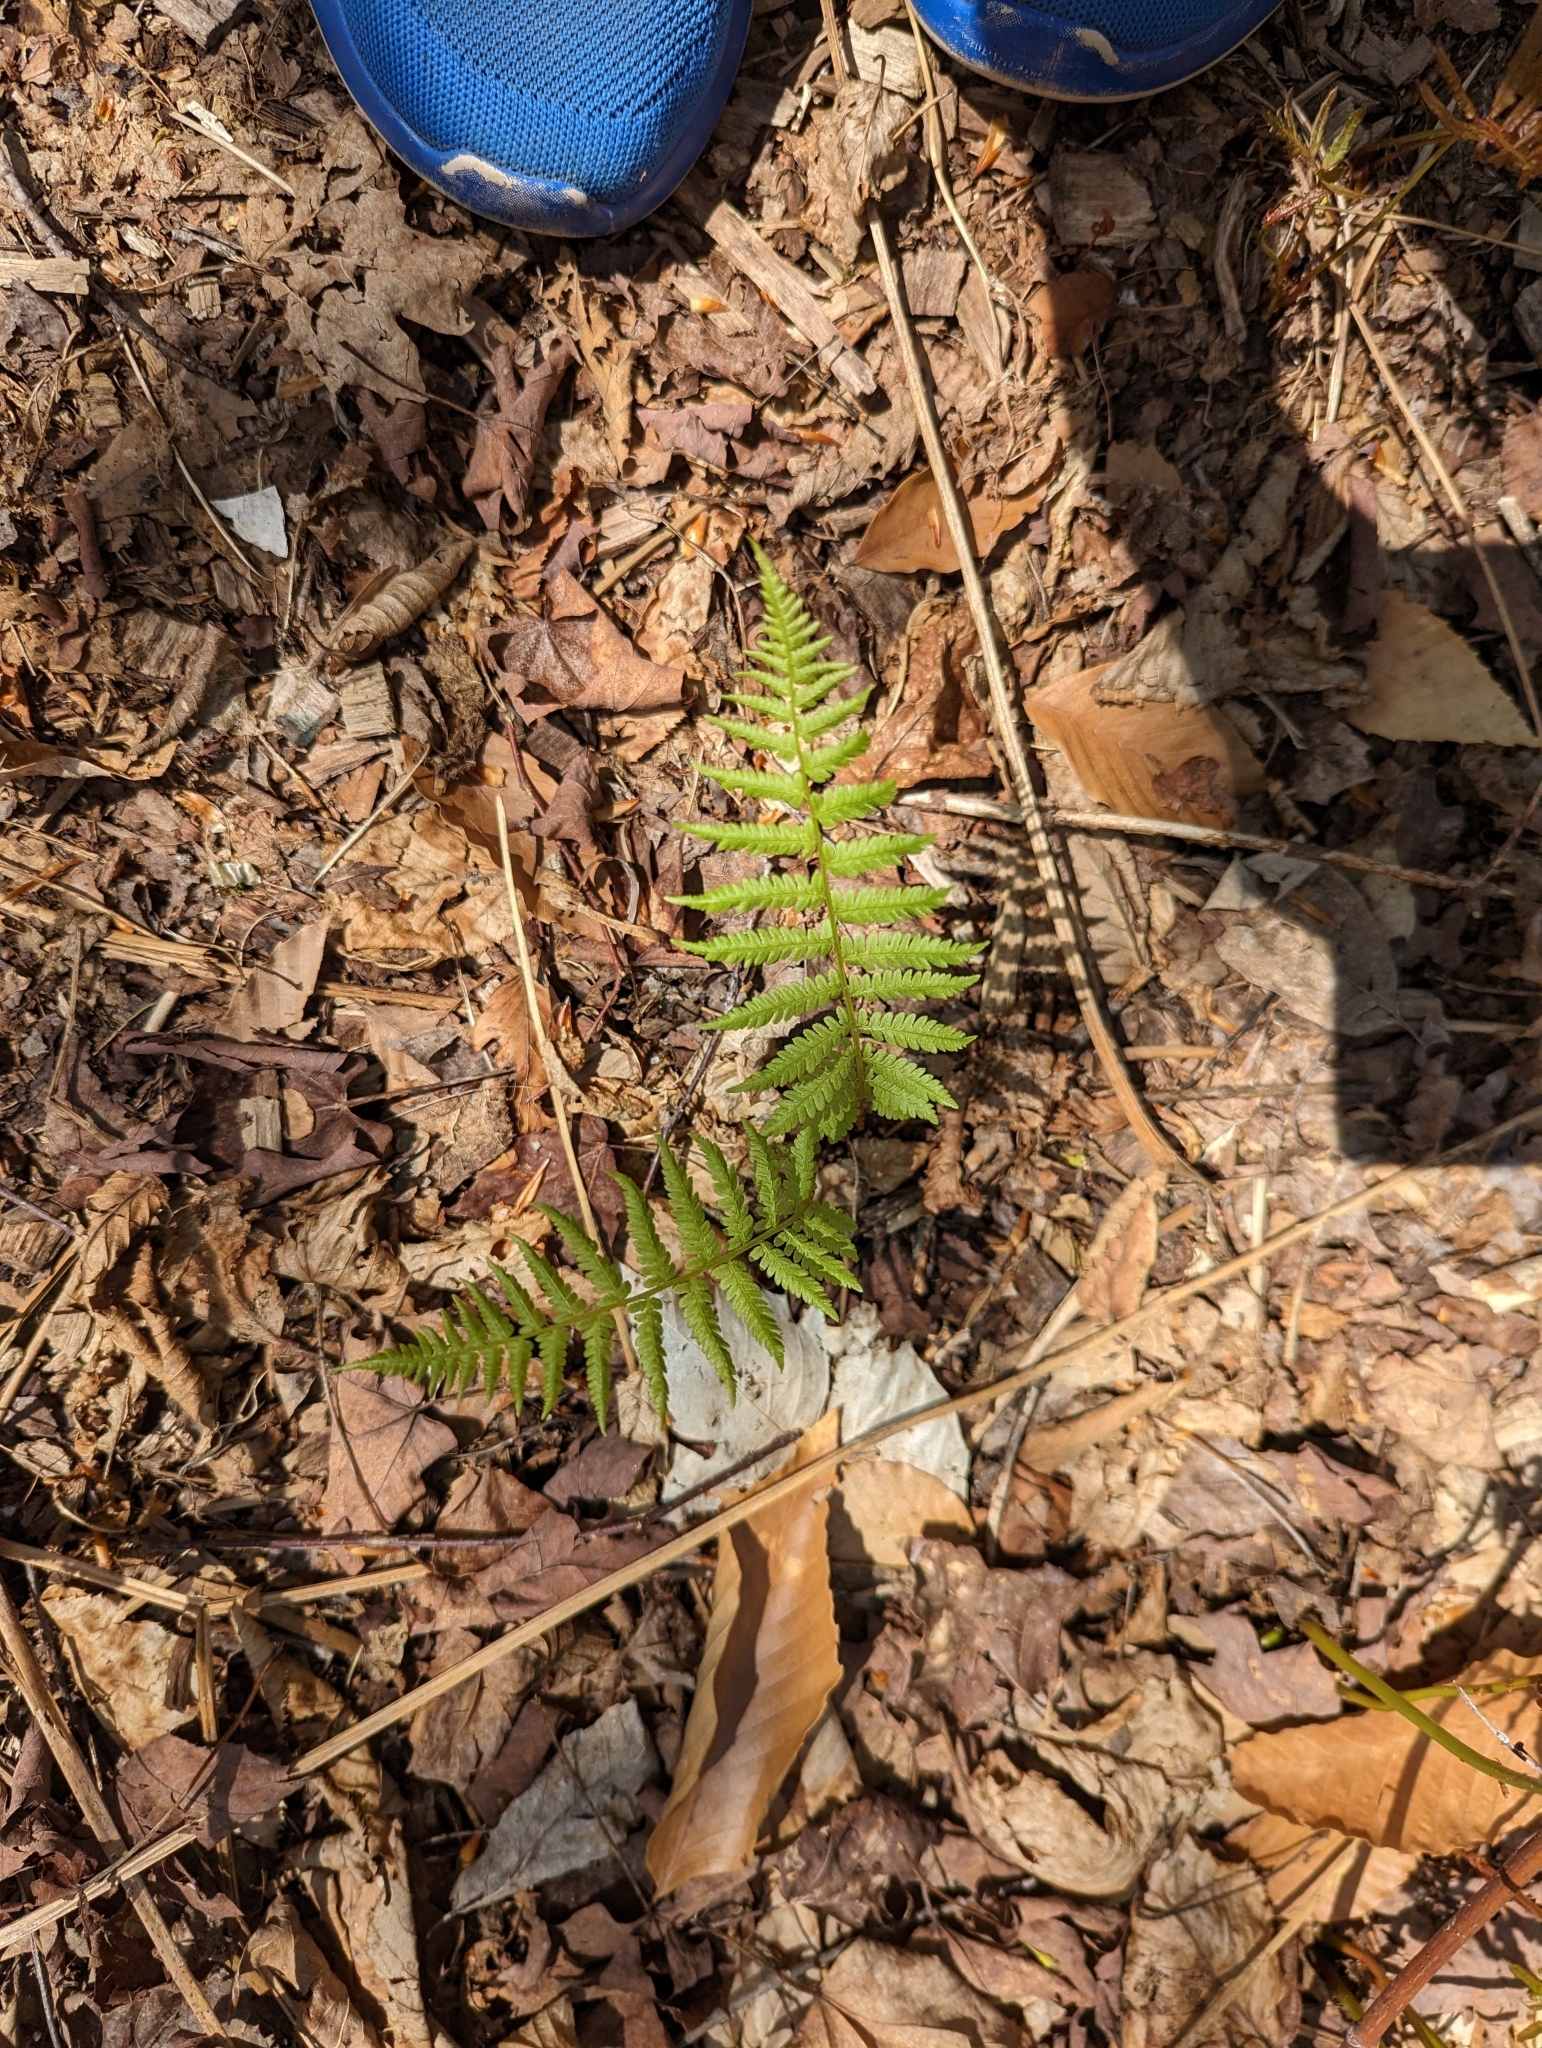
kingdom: Plantae
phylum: Tracheophyta
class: Polypodiopsida
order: Polypodiales
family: Thelypteridaceae
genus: Amauropelta
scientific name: Amauropelta noveboracensis
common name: New york fern
